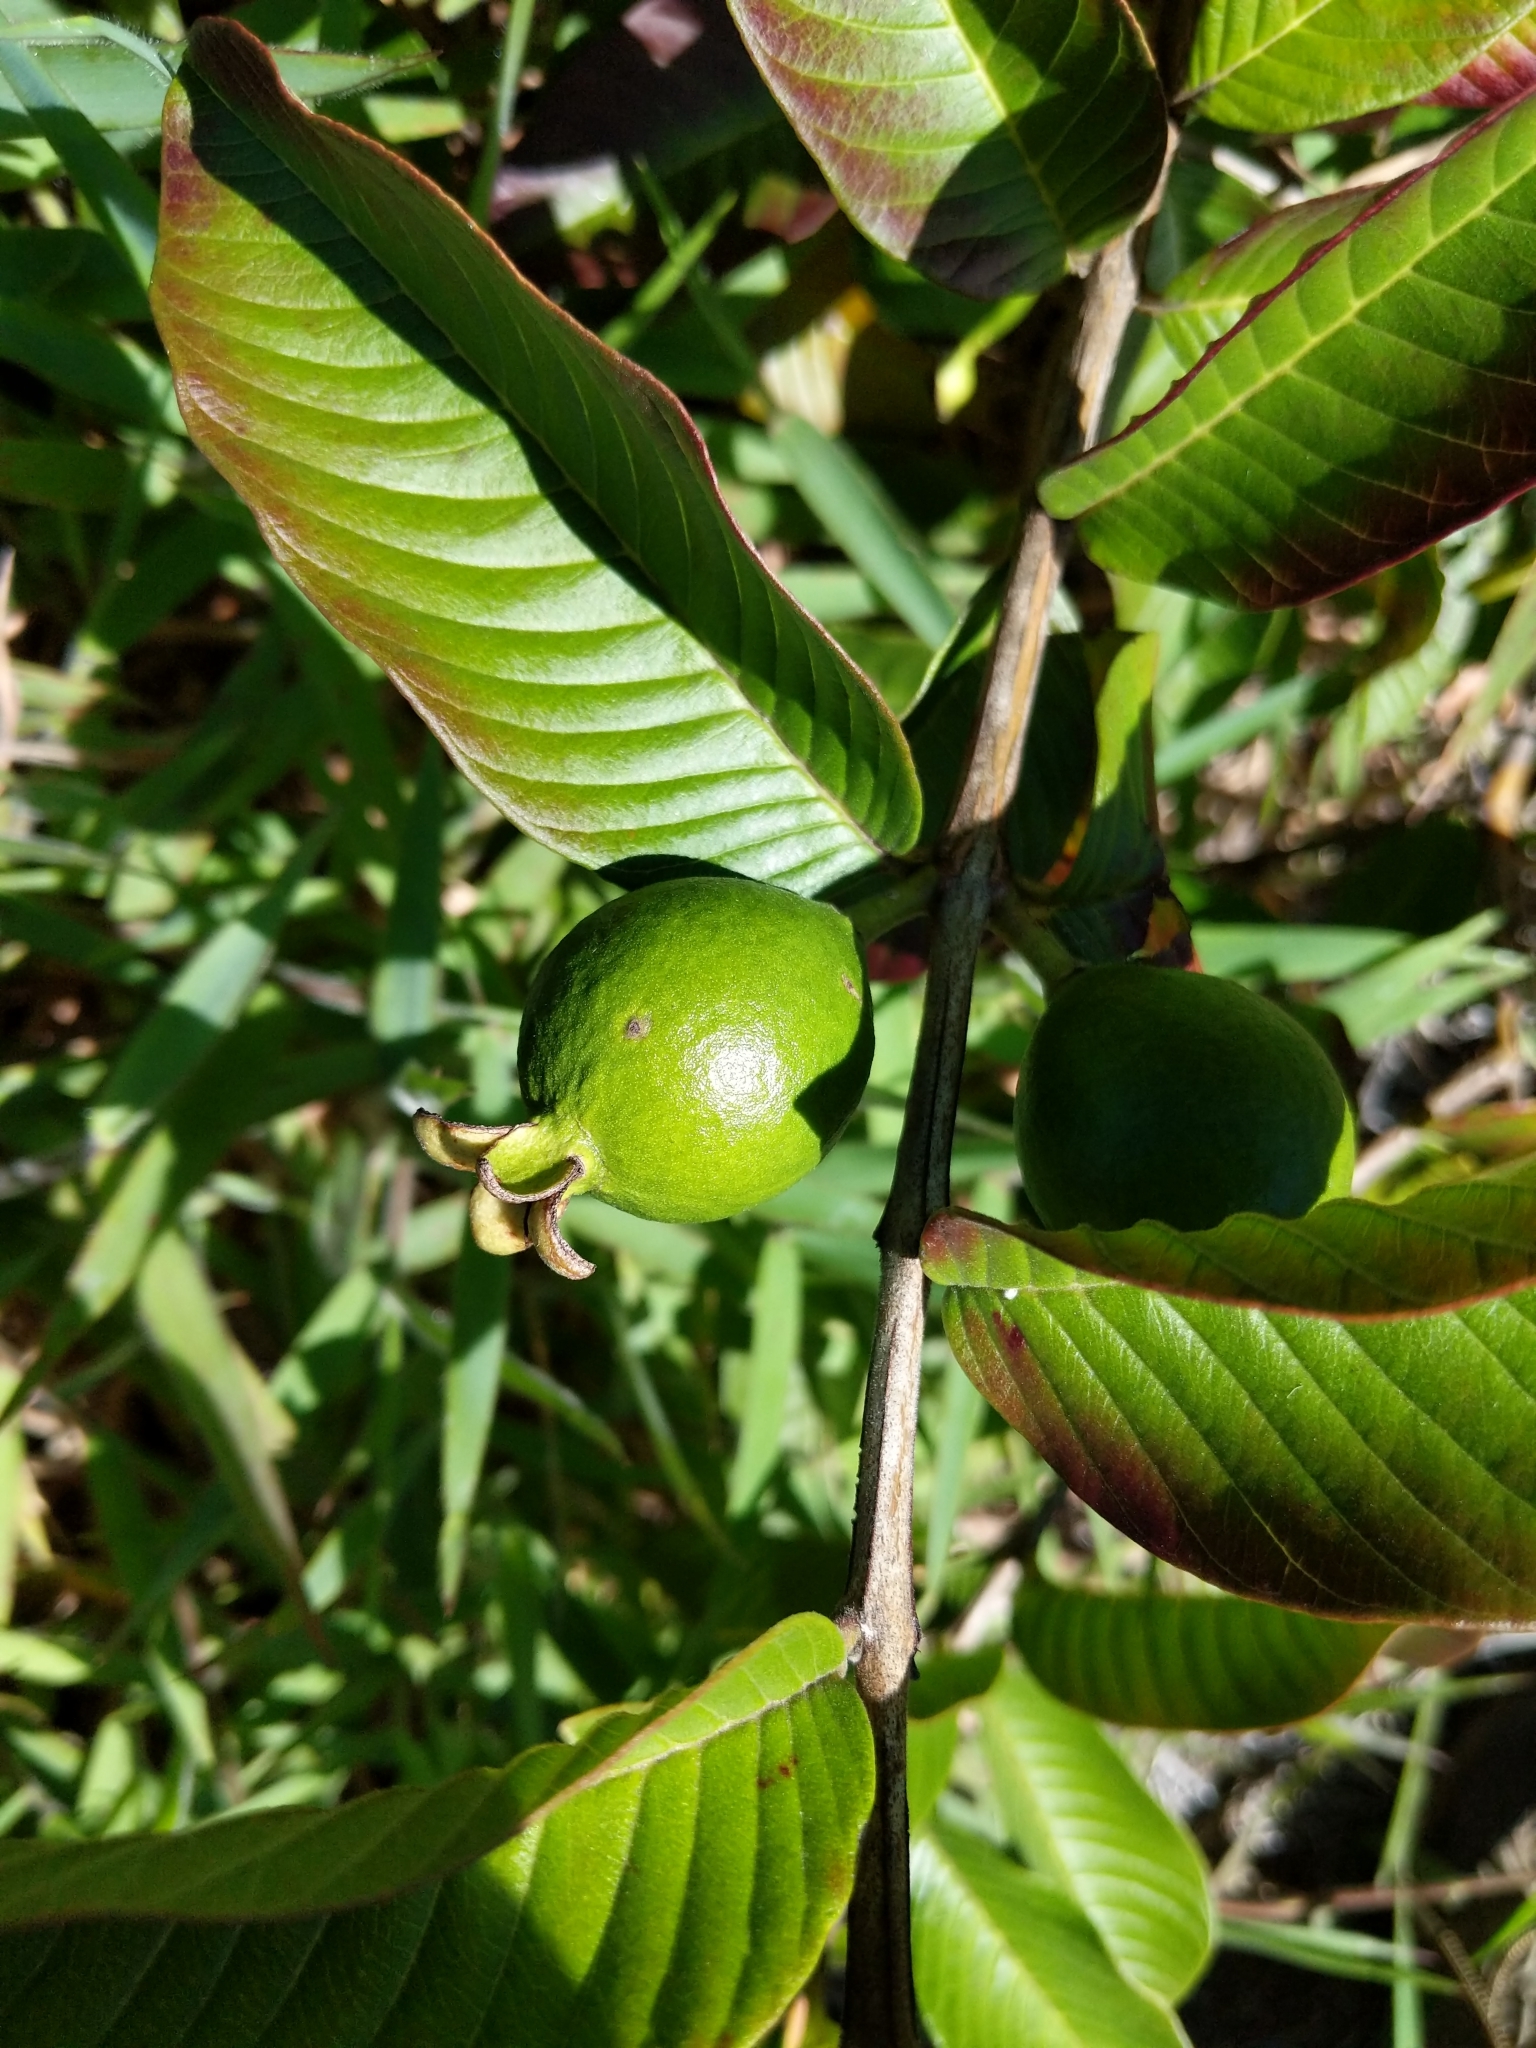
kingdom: Plantae
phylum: Tracheophyta
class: Magnoliopsida
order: Myrtales
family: Myrtaceae
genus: Psidium
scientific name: Psidium guajava
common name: Guava
